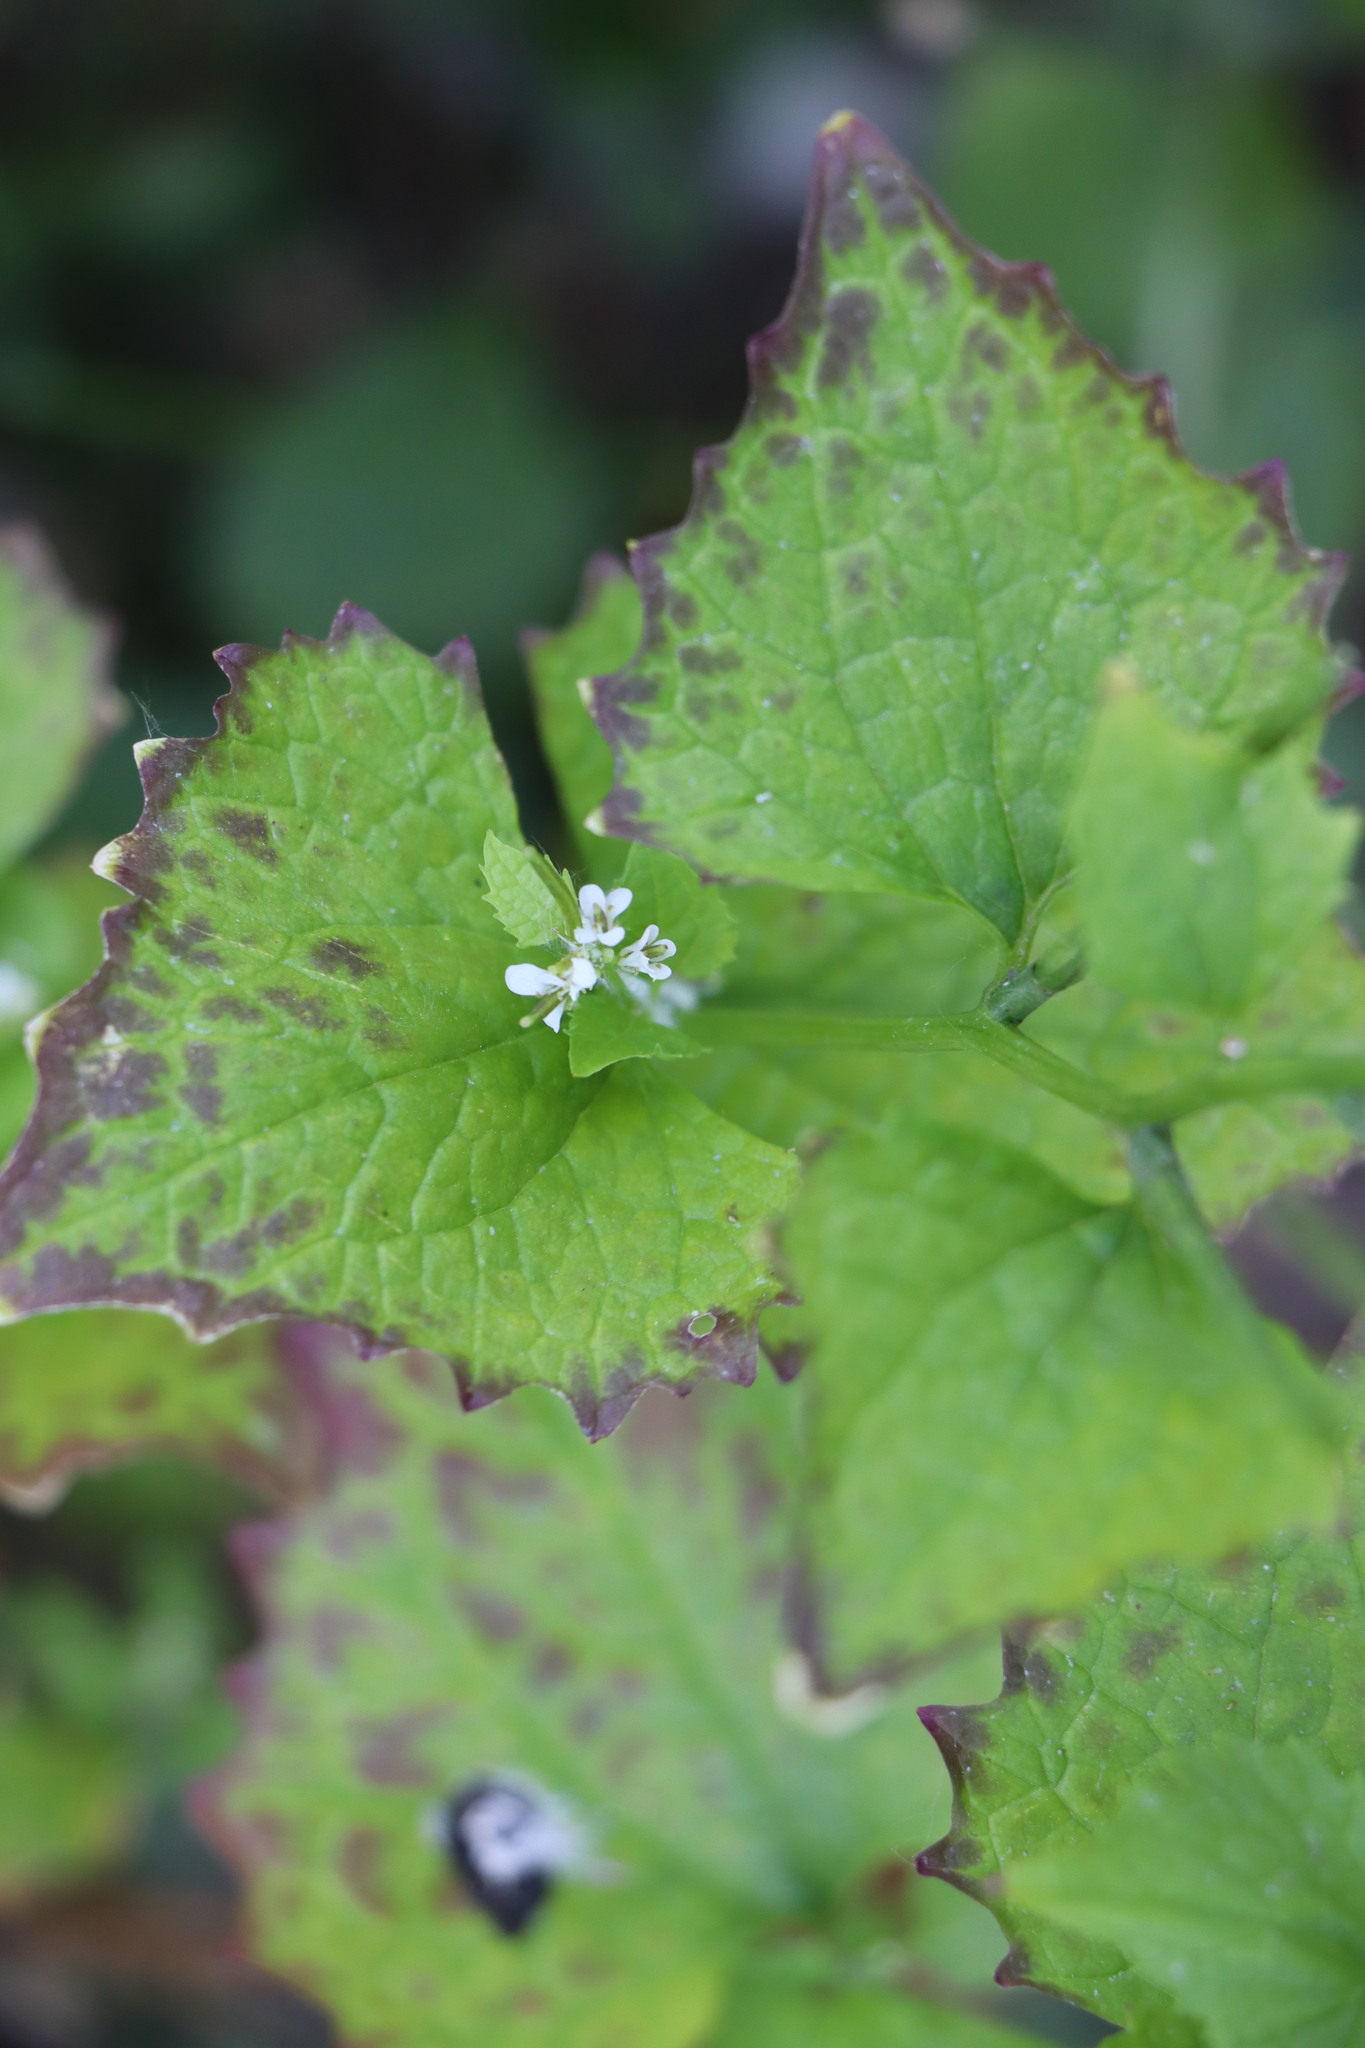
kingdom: Plantae
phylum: Tracheophyta
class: Magnoliopsida
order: Brassicales
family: Brassicaceae
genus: Alliaria
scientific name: Alliaria petiolata
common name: Garlic mustard
